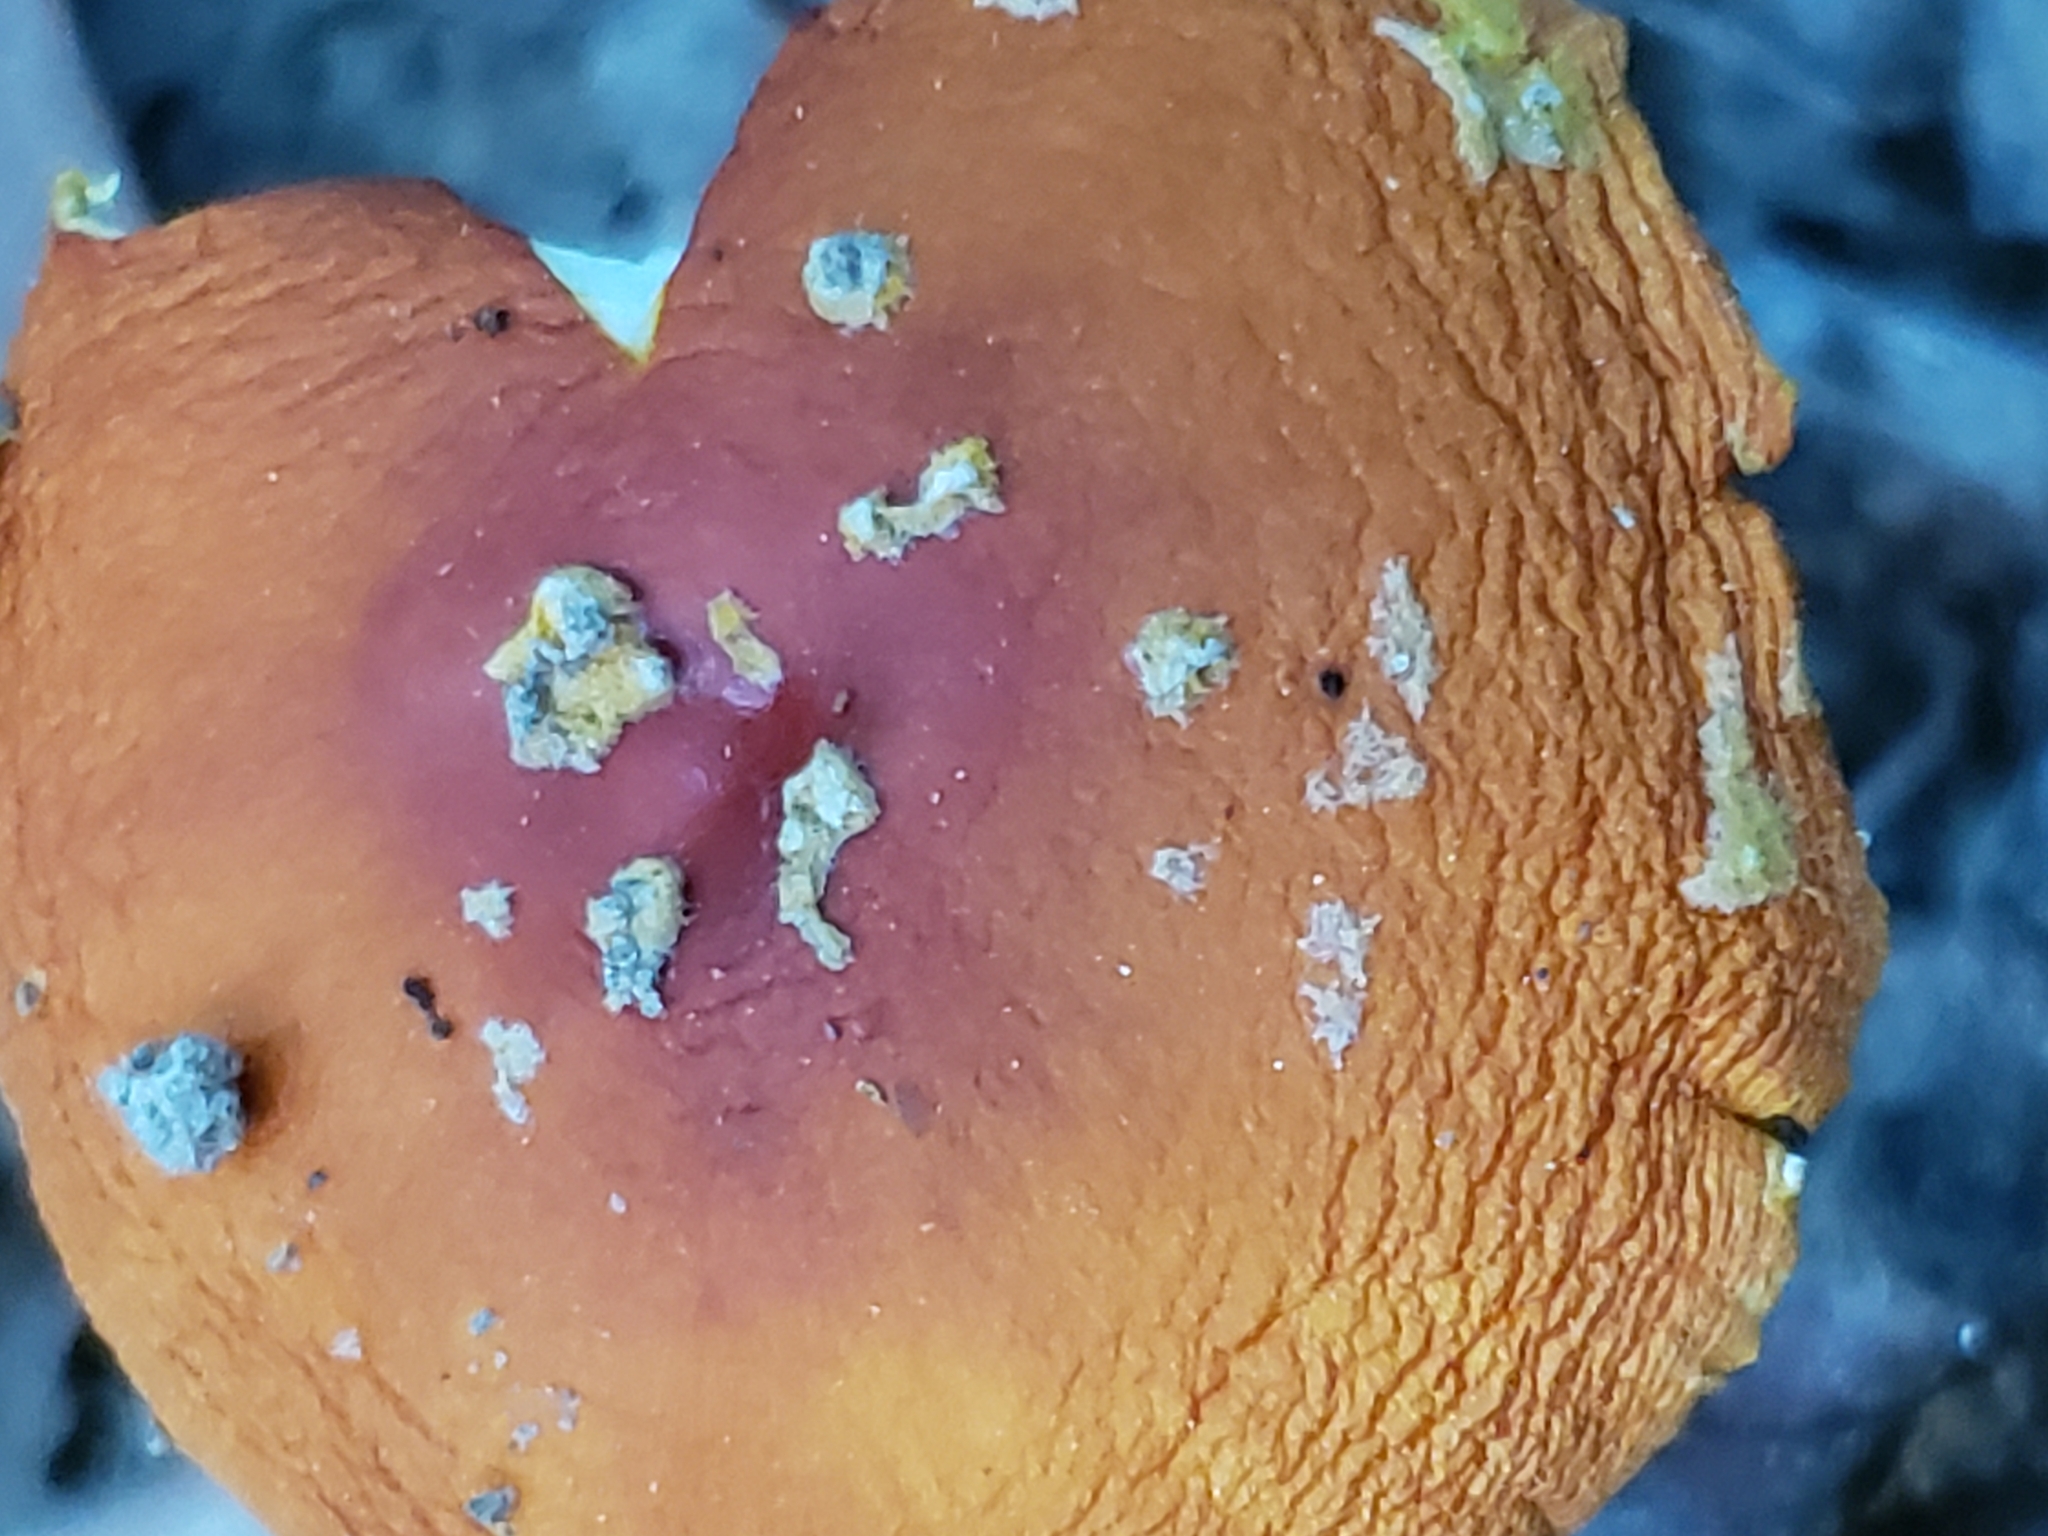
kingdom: Fungi
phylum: Basidiomycota
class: Agaricomycetes
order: Agaricales
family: Amanitaceae
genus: Amanita
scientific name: Amanita flavoconia
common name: Yellow patches
